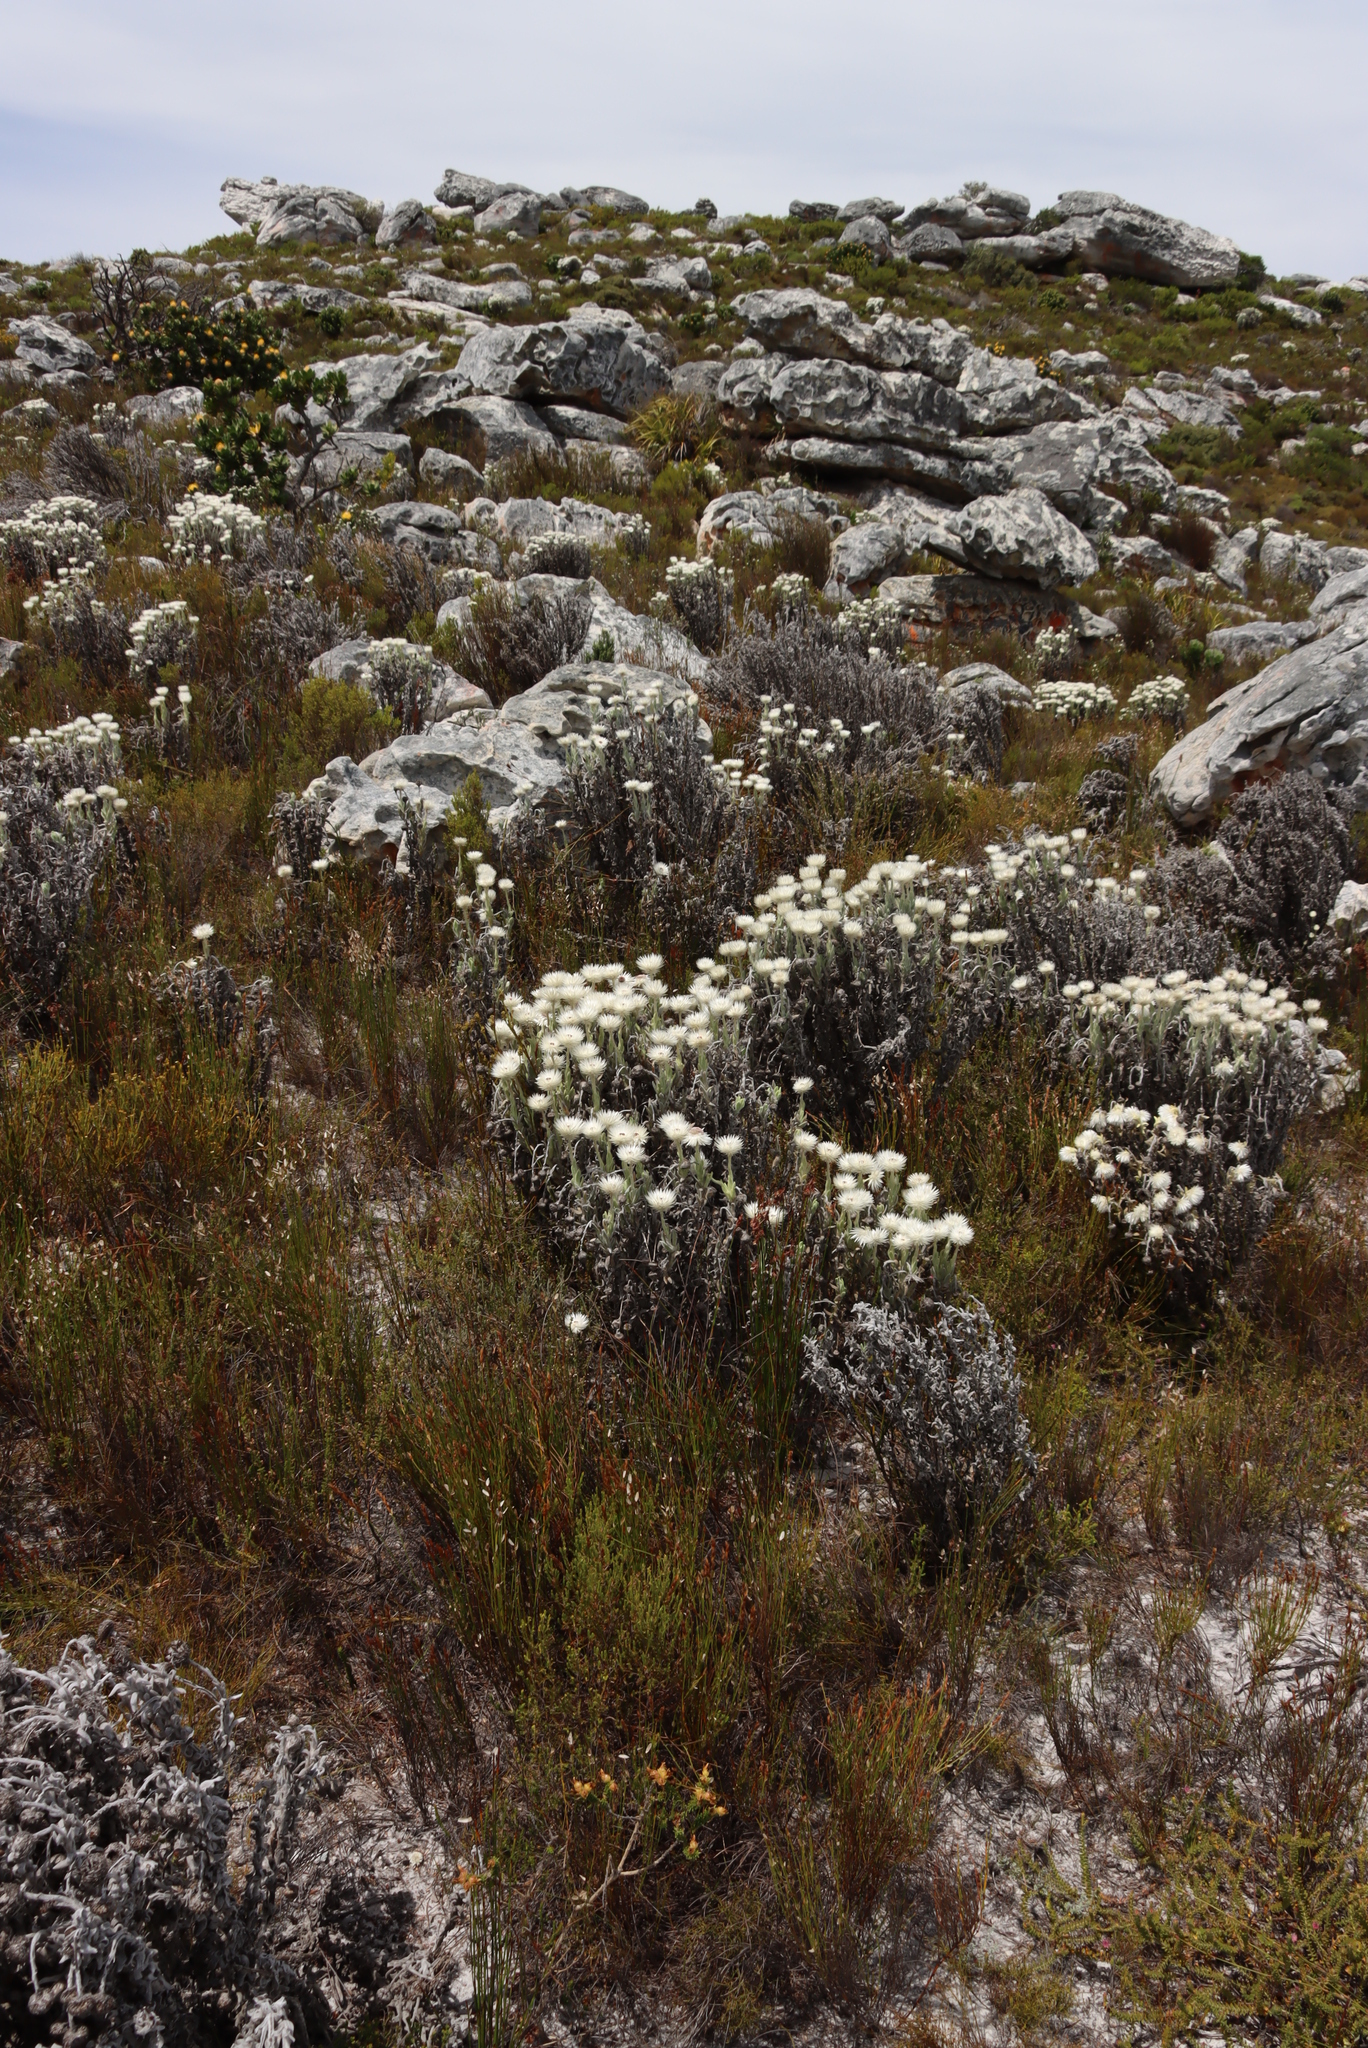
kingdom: Plantae
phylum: Tracheophyta
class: Magnoliopsida
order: Asterales
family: Asteraceae
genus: Syncarpha
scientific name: Syncarpha vestita
